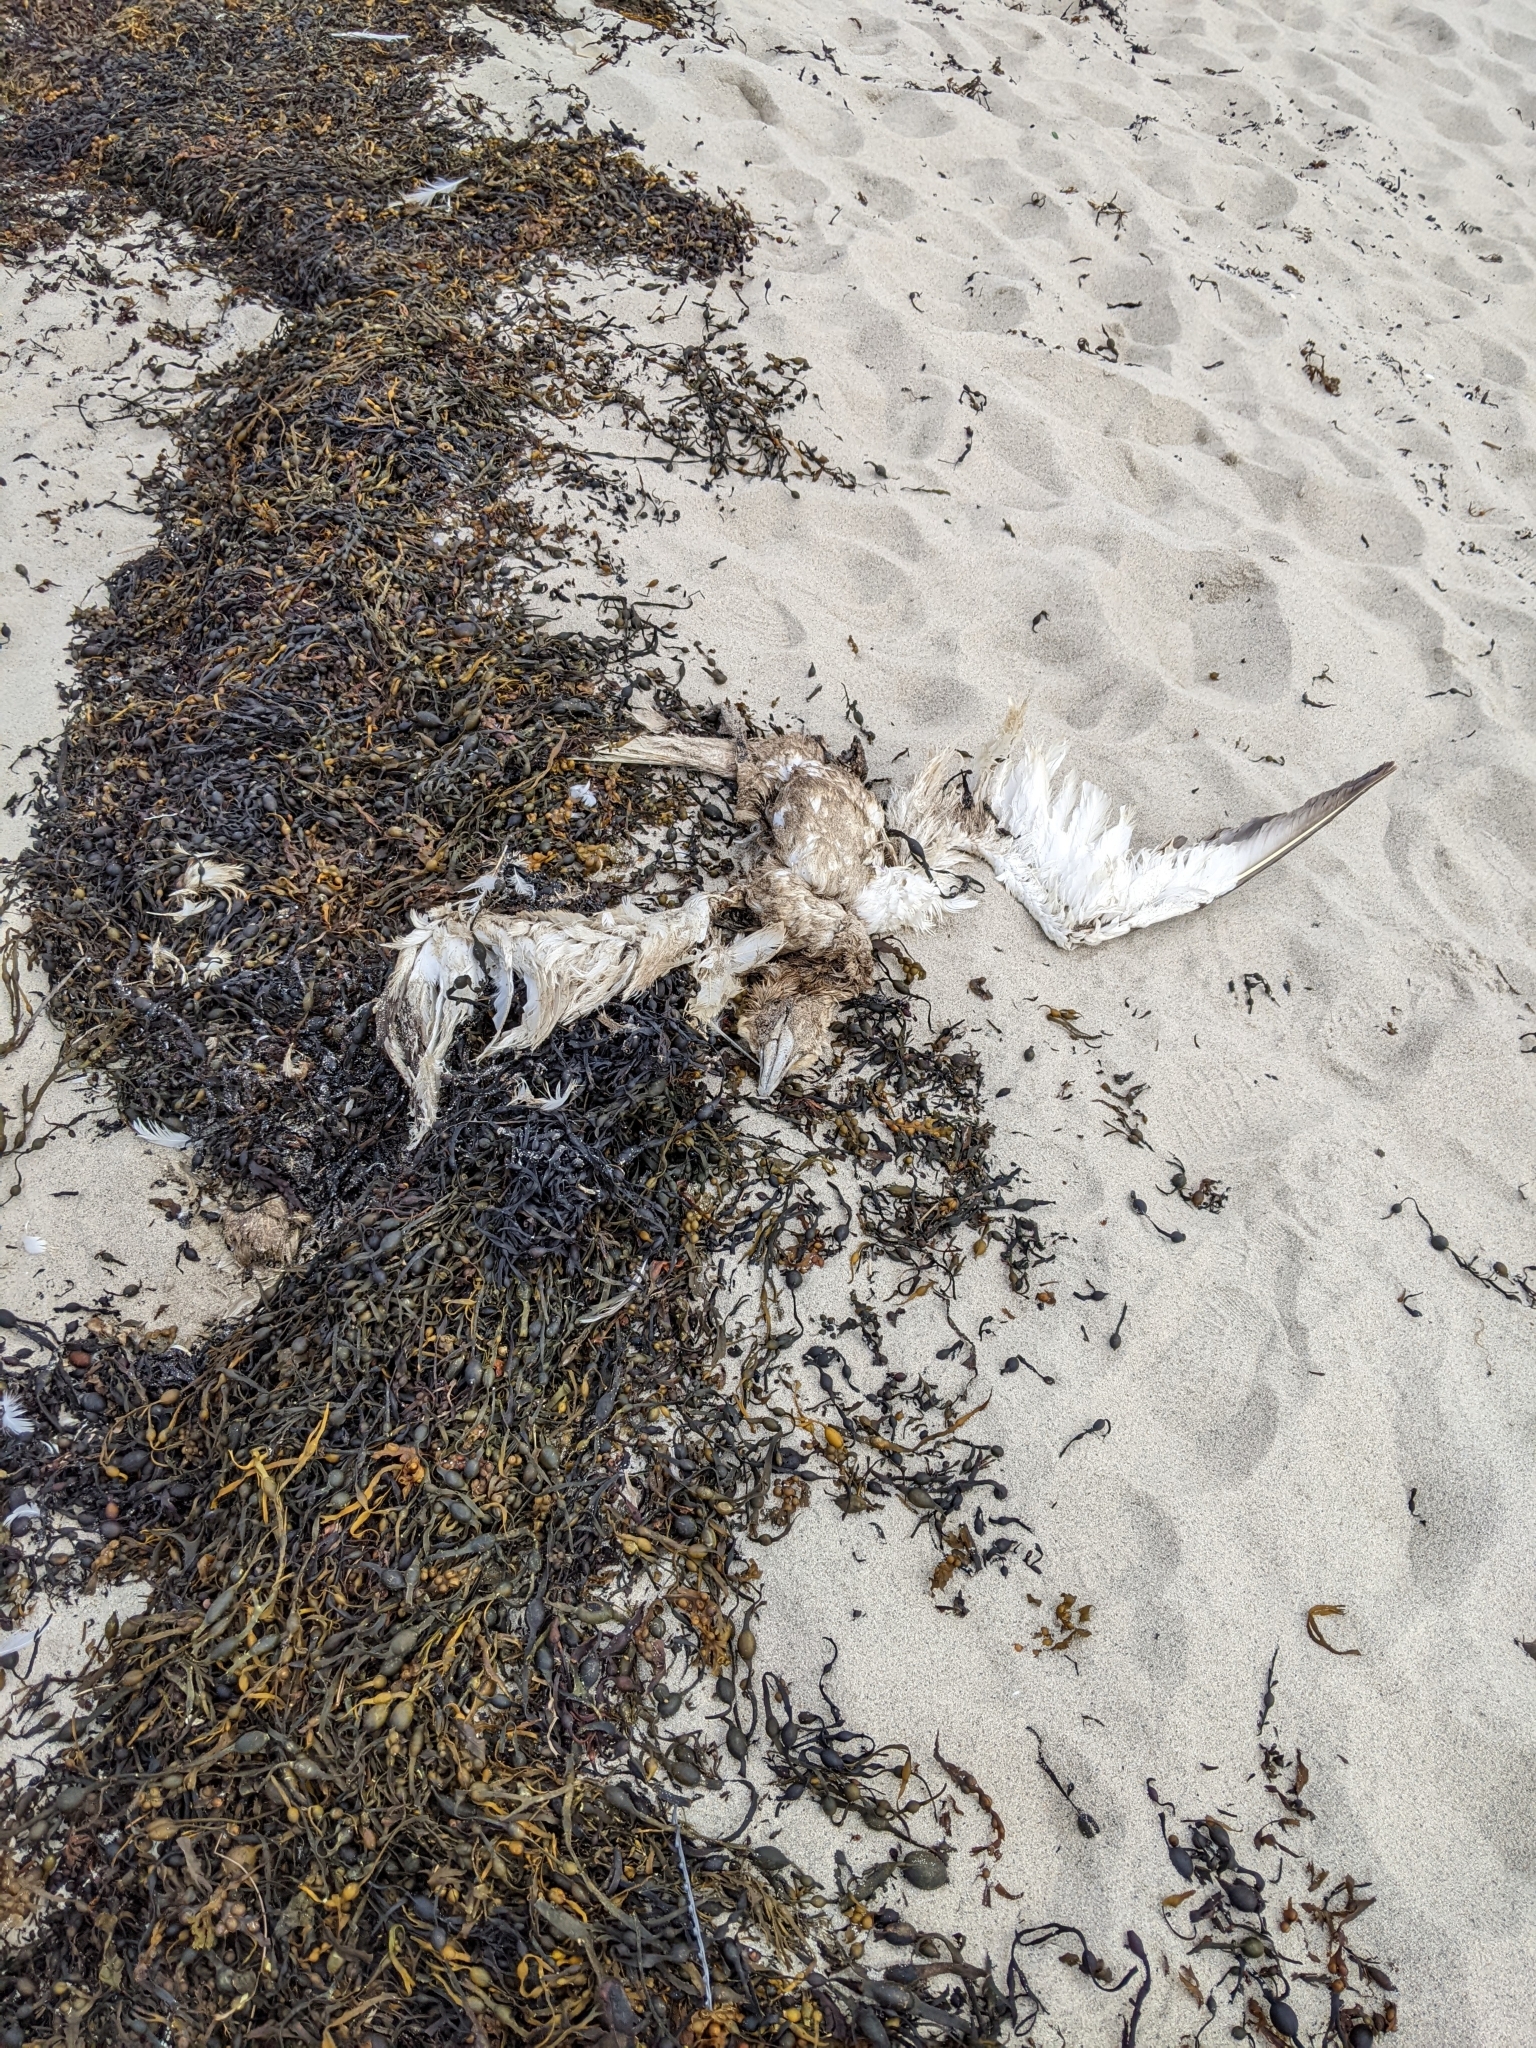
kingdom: Animalia
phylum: Chordata
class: Aves
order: Suliformes
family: Sulidae
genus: Morus
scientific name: Morus bassanus
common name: Northern gannet
